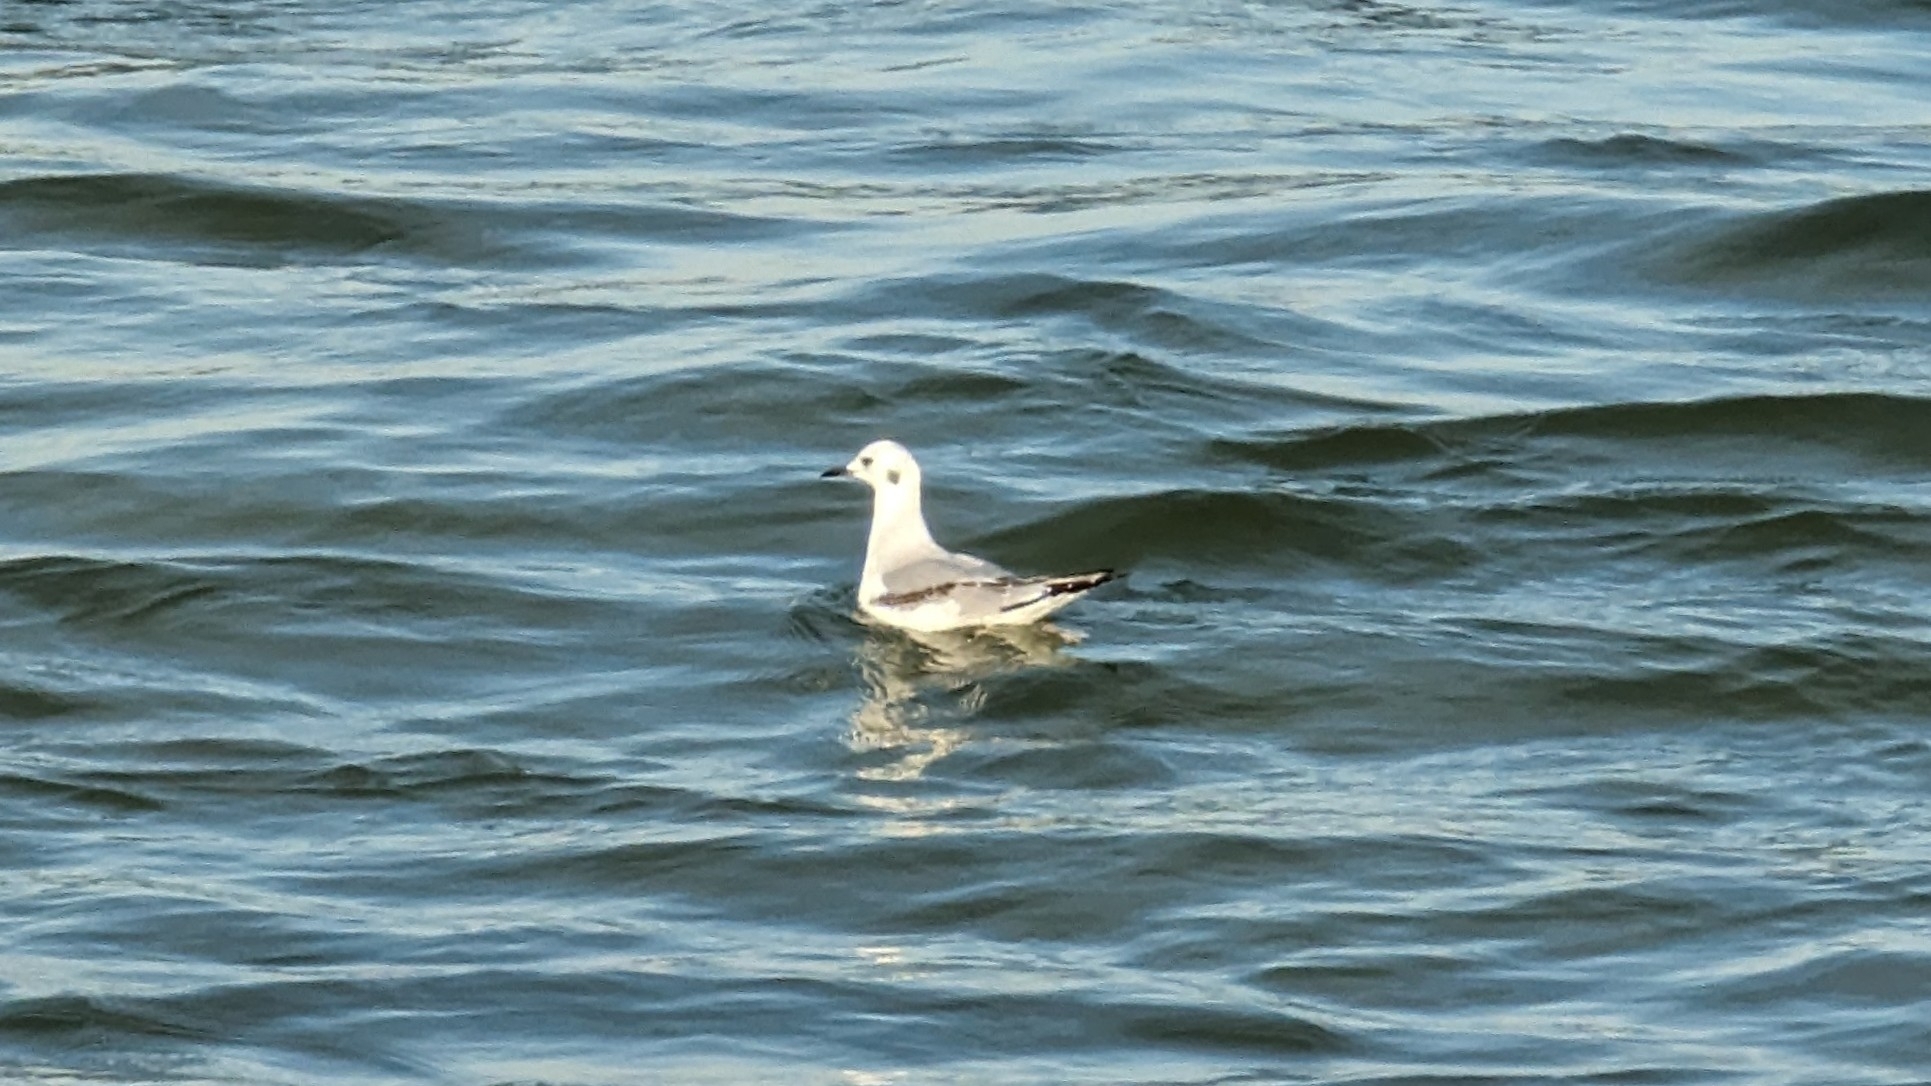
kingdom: Animalia
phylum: Chordata
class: Aves
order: Charadriiformes
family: Laridae
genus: Chroicocephalus
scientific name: Chroicocephalus philadelphia
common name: Bonaparte's gull
